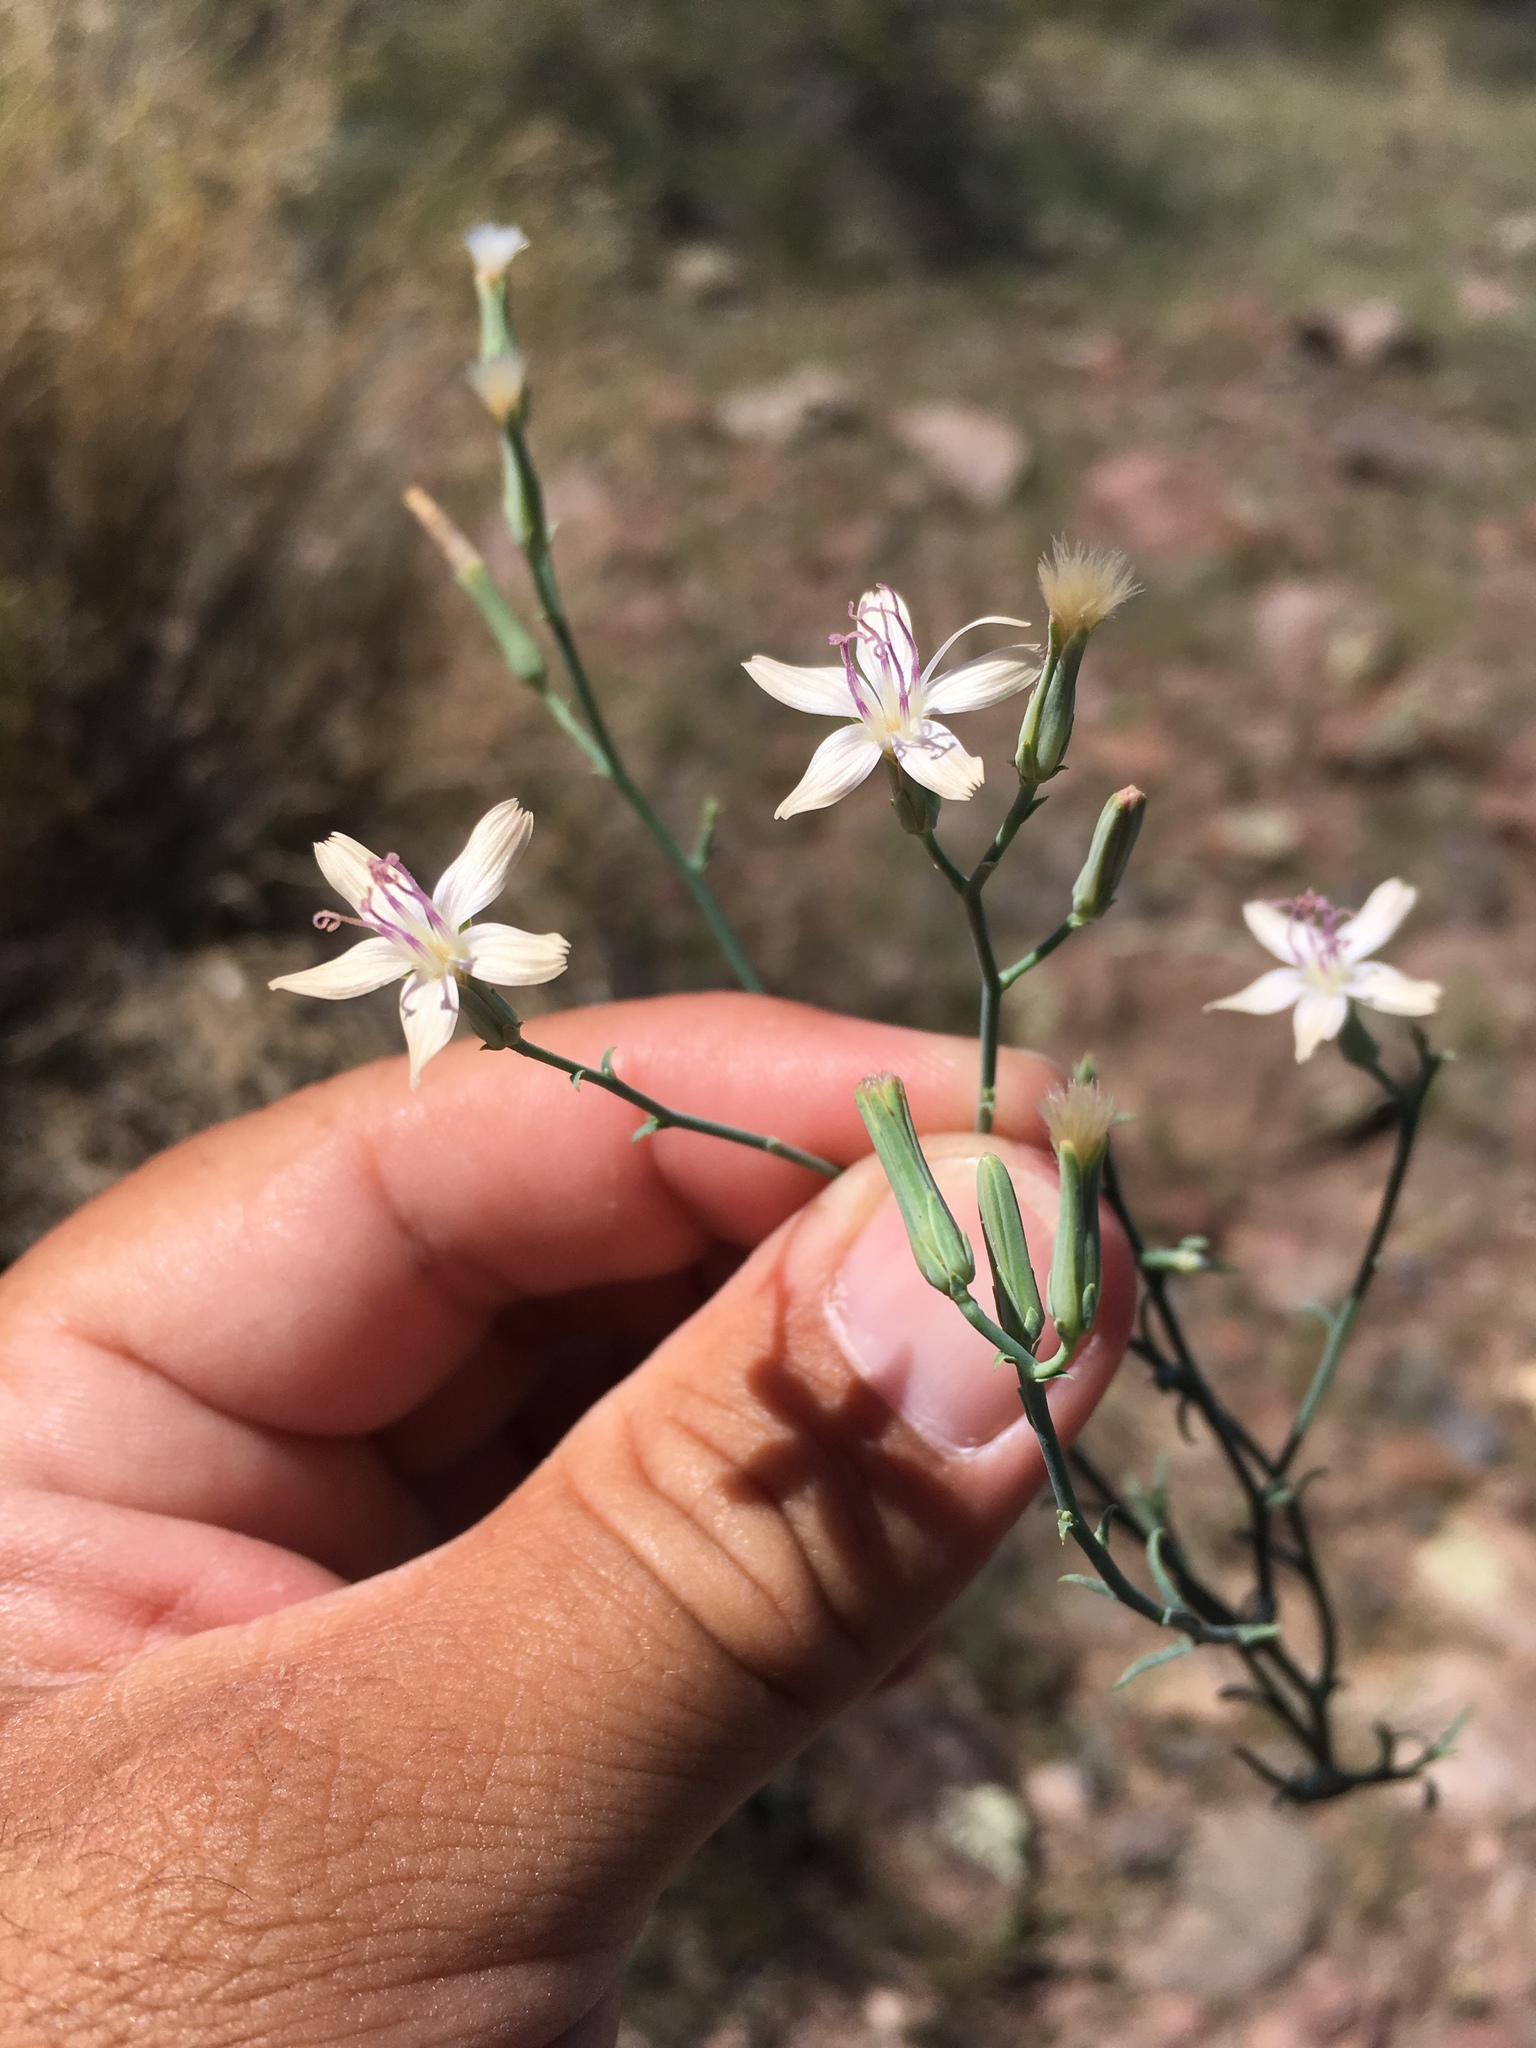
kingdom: Plantae
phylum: Tracheophyta
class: Magnoliopsida
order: Asterales
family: Asteraceae
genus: Stephanomeria
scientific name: Stephanomeria pauciflora
